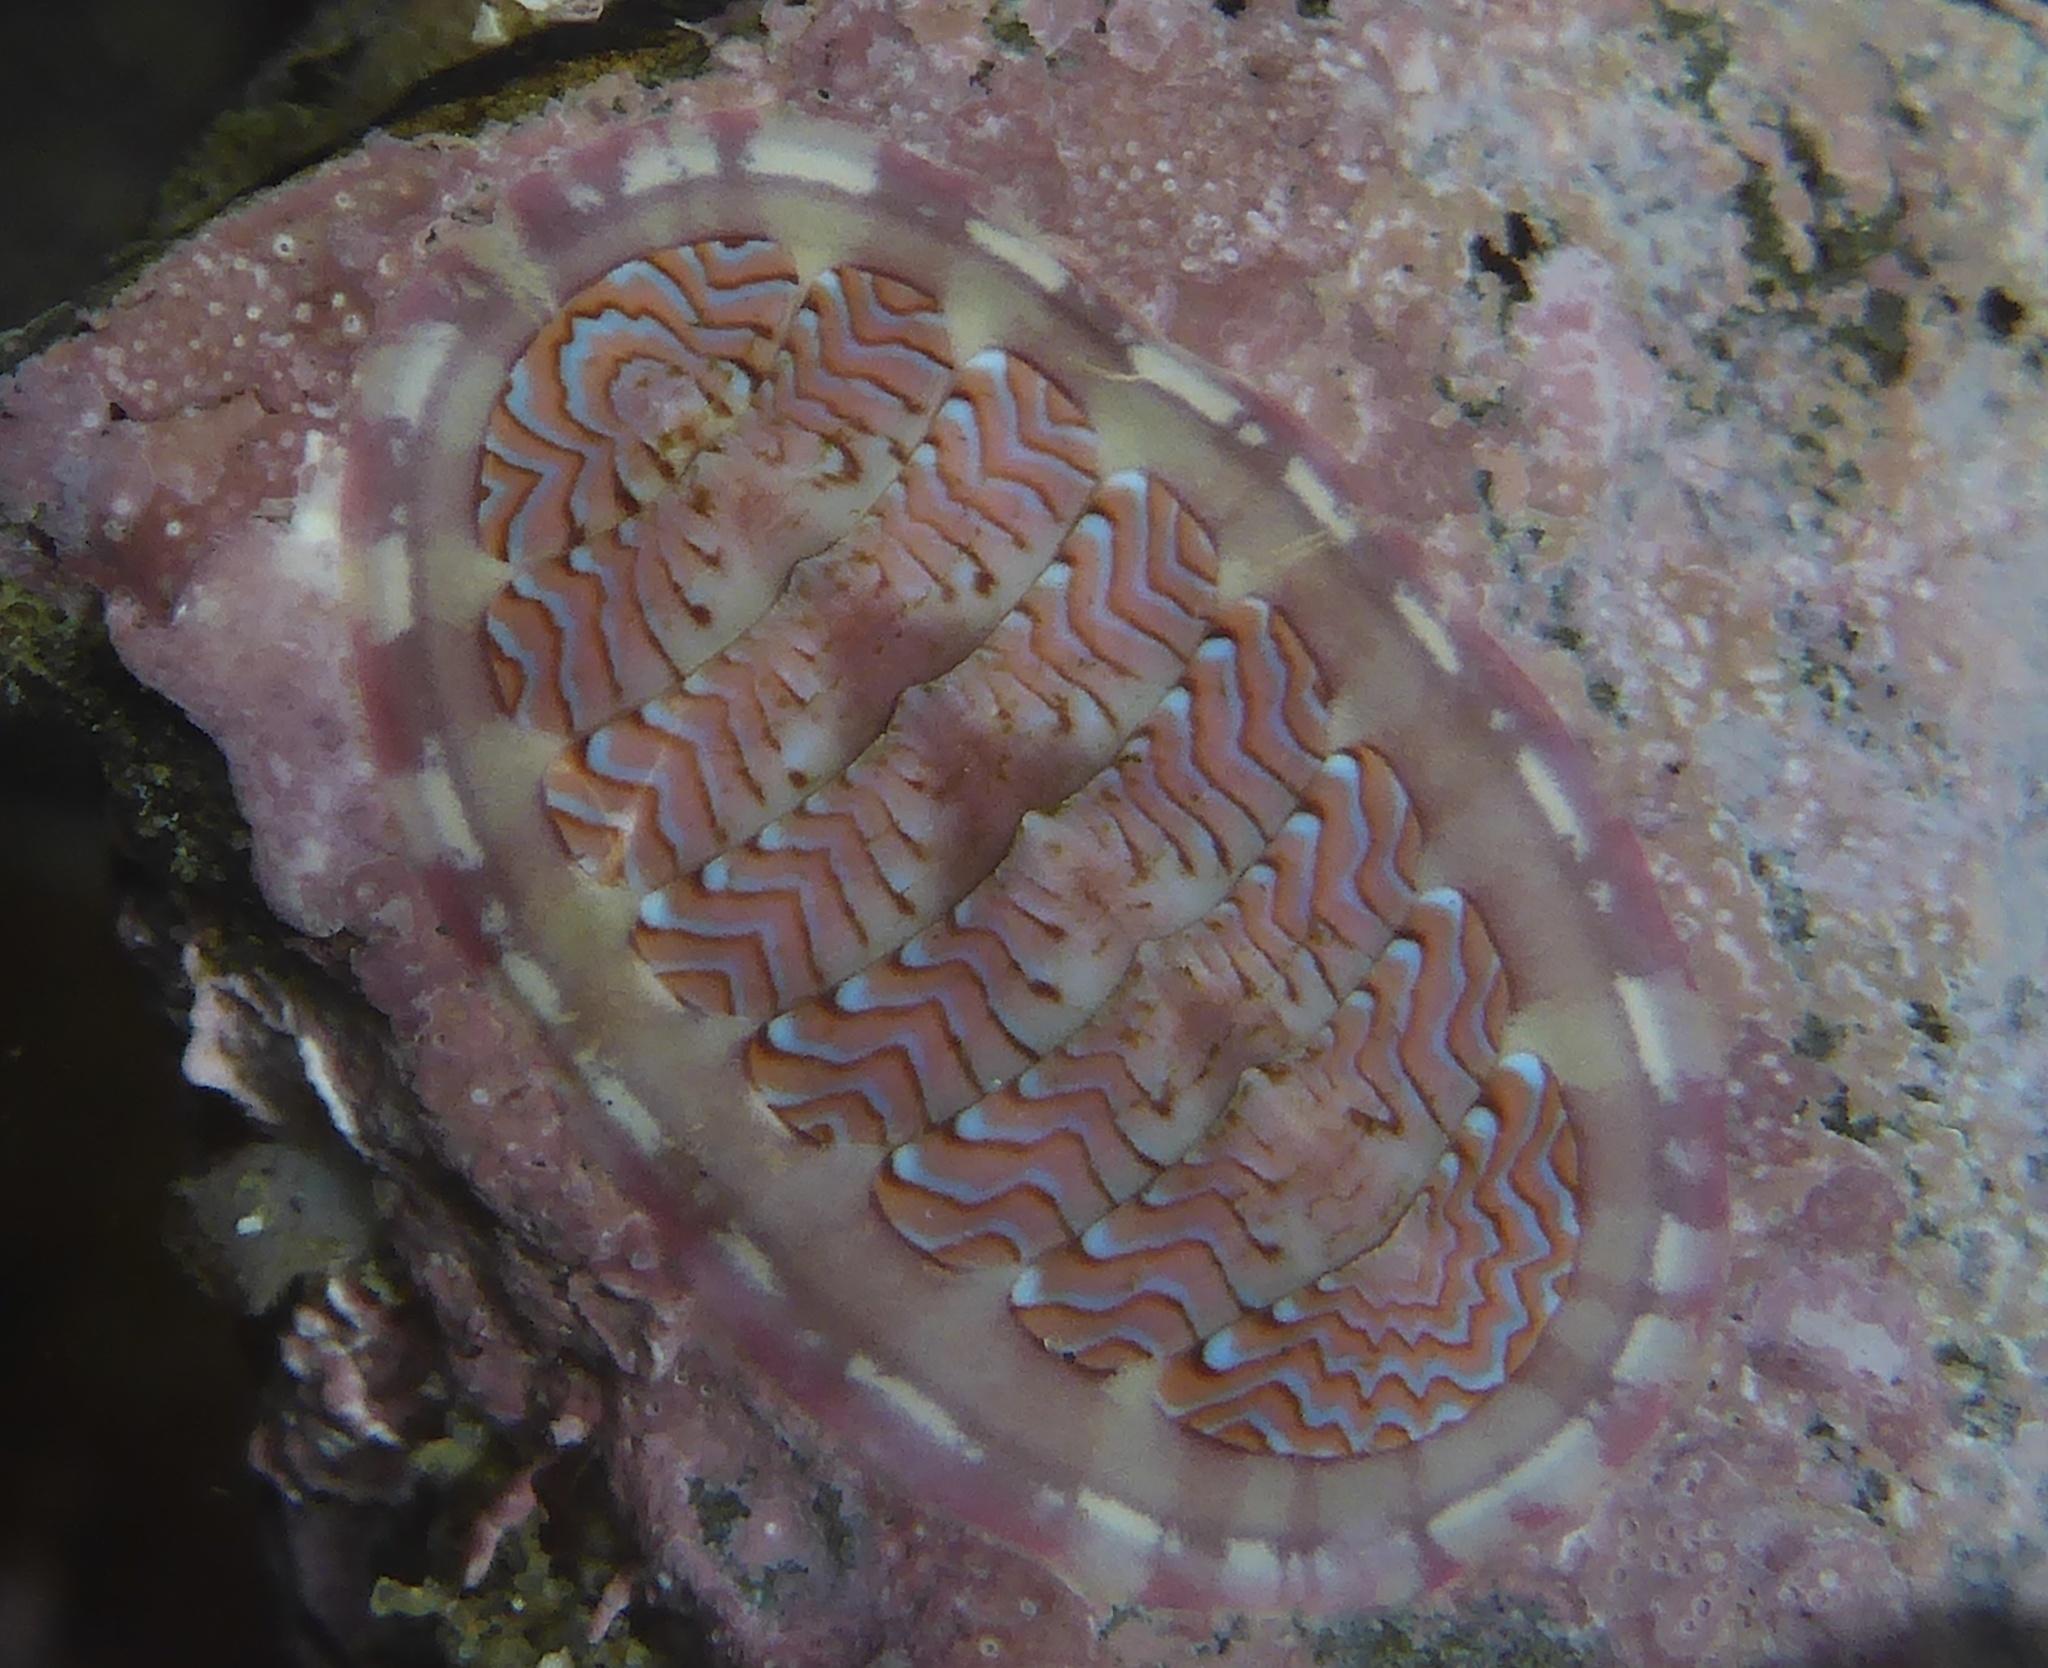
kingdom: Animalia
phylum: Mollusca
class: Polyplacophora
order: Chitonida
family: Tonicellidae
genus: Tonicella
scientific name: Tonicella lokii
